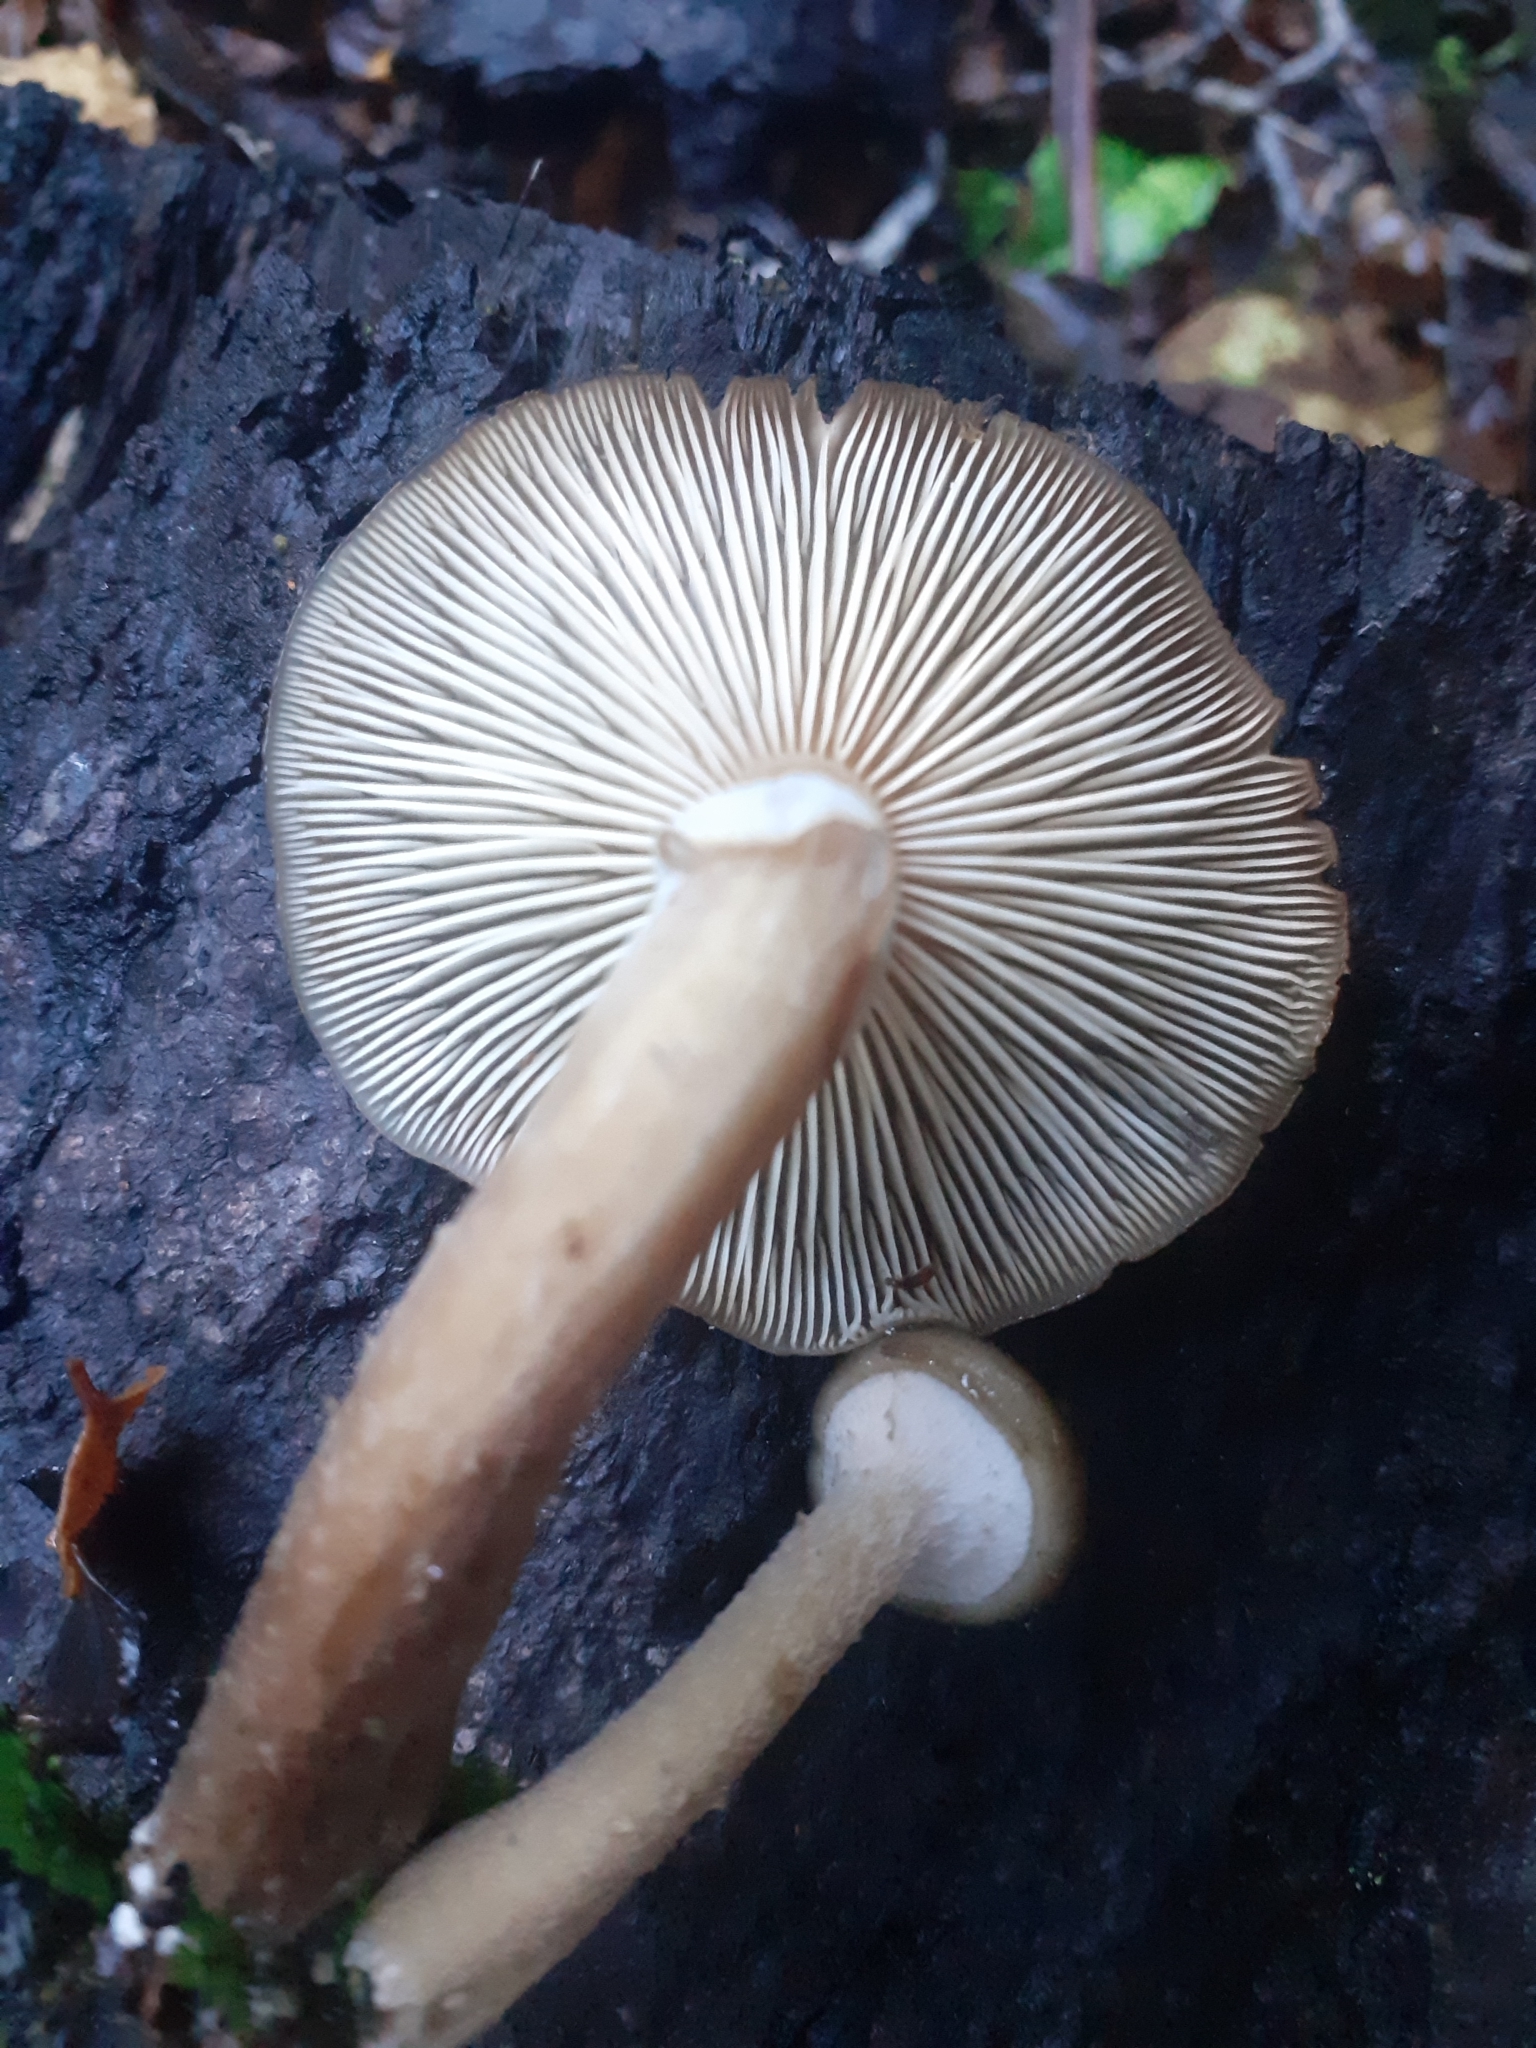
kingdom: Fungi
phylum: Basidiomycota
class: Agaricomycetes
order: Agaricales
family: Physalacriaceae
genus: Armillaria
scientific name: Armillaria novae-zelandiae
